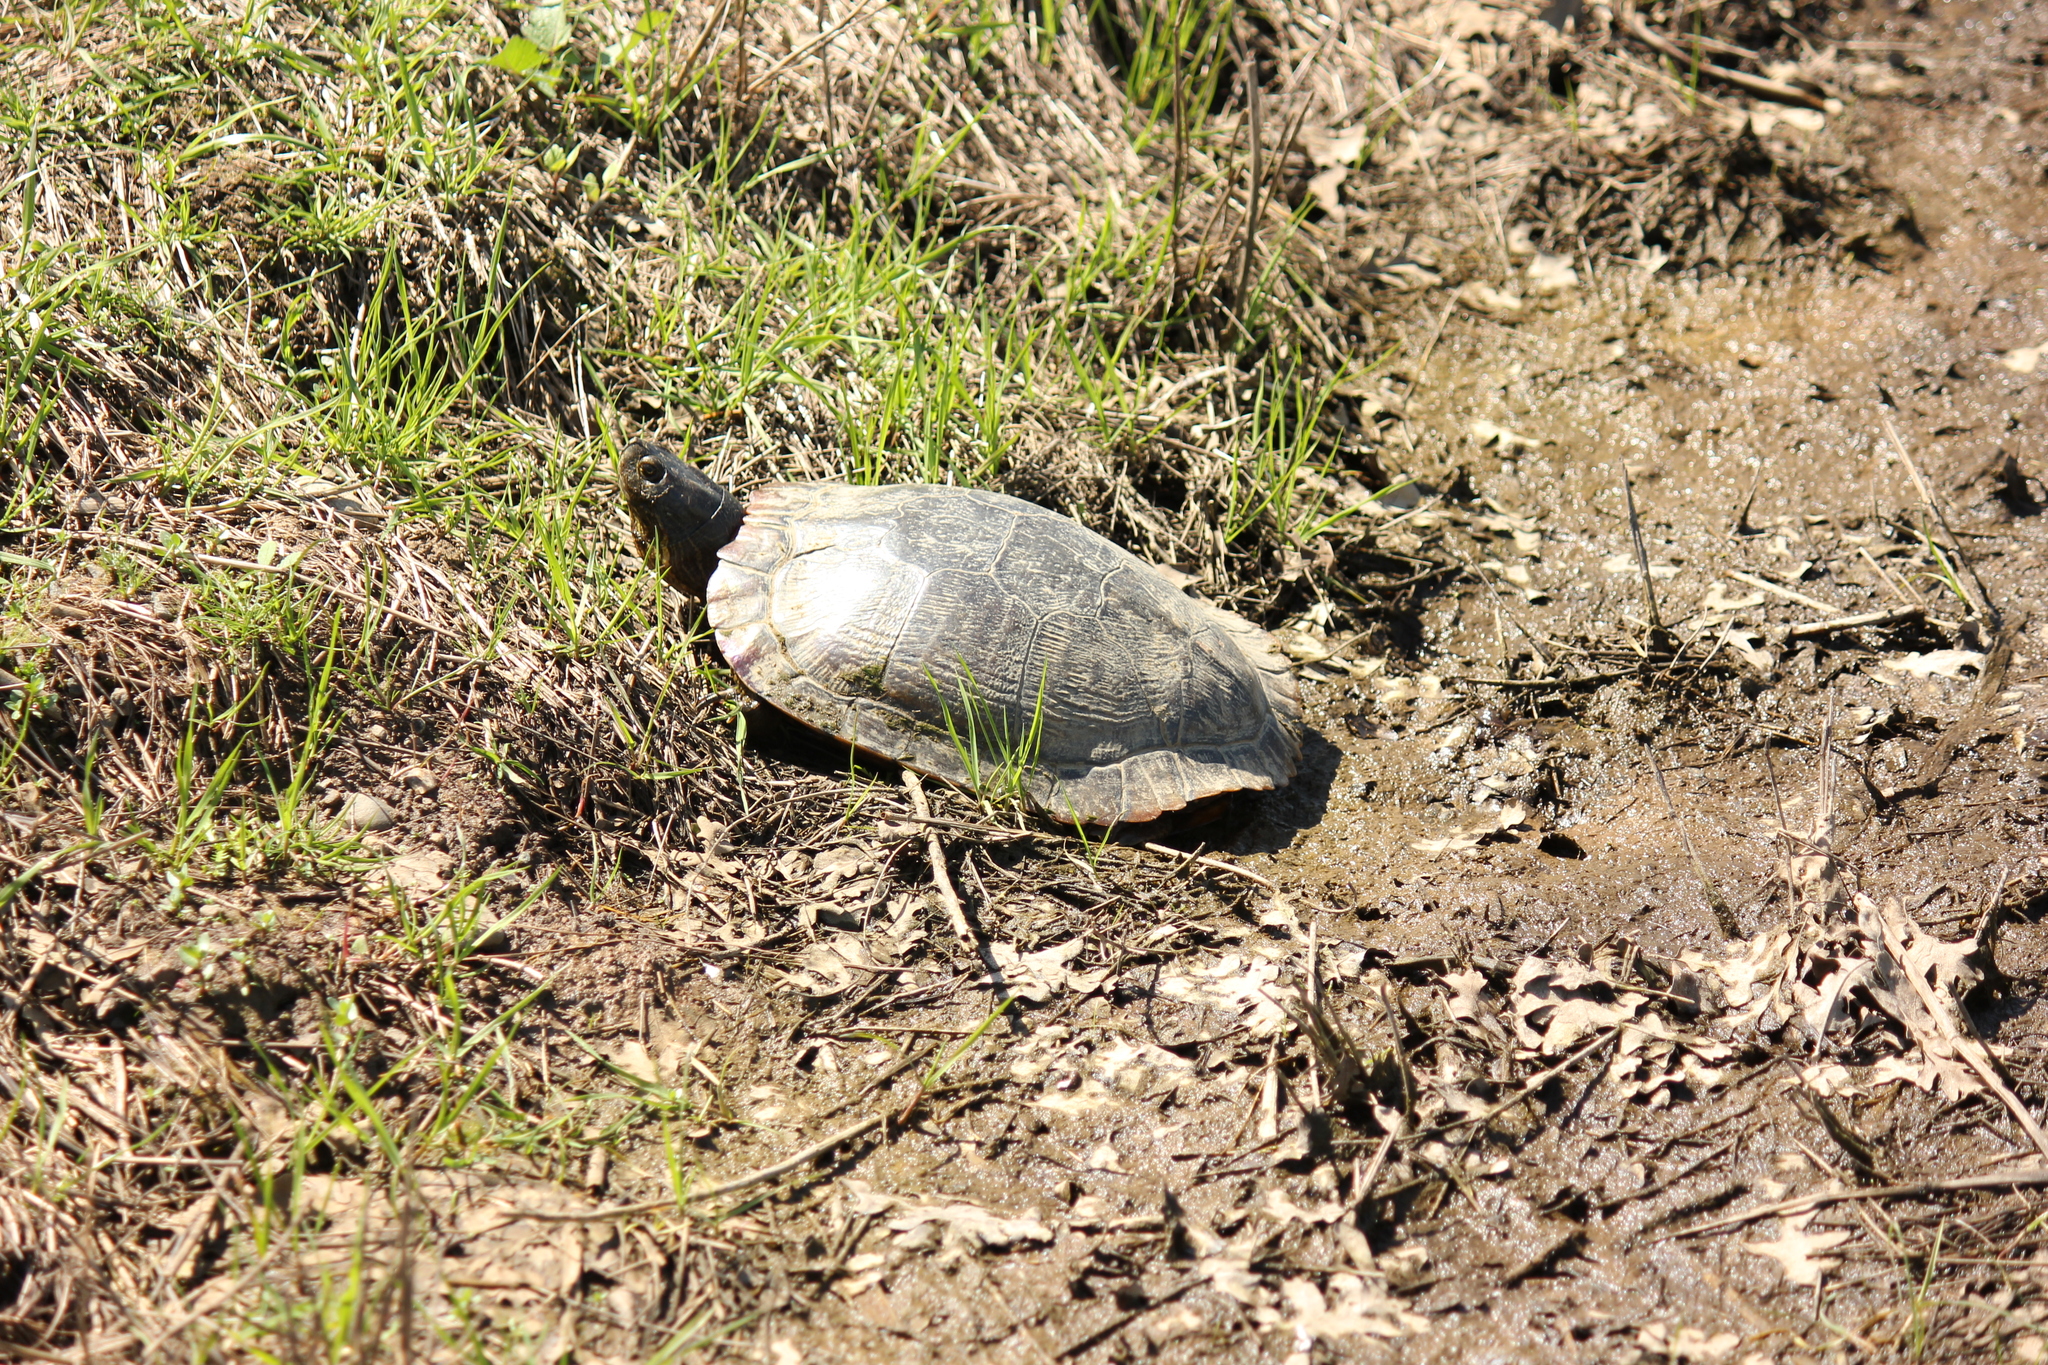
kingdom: Animalia
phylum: Chordata
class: Testudines
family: Emydidae
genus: Trachemys
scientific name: Trachemys scripta
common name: Slider
